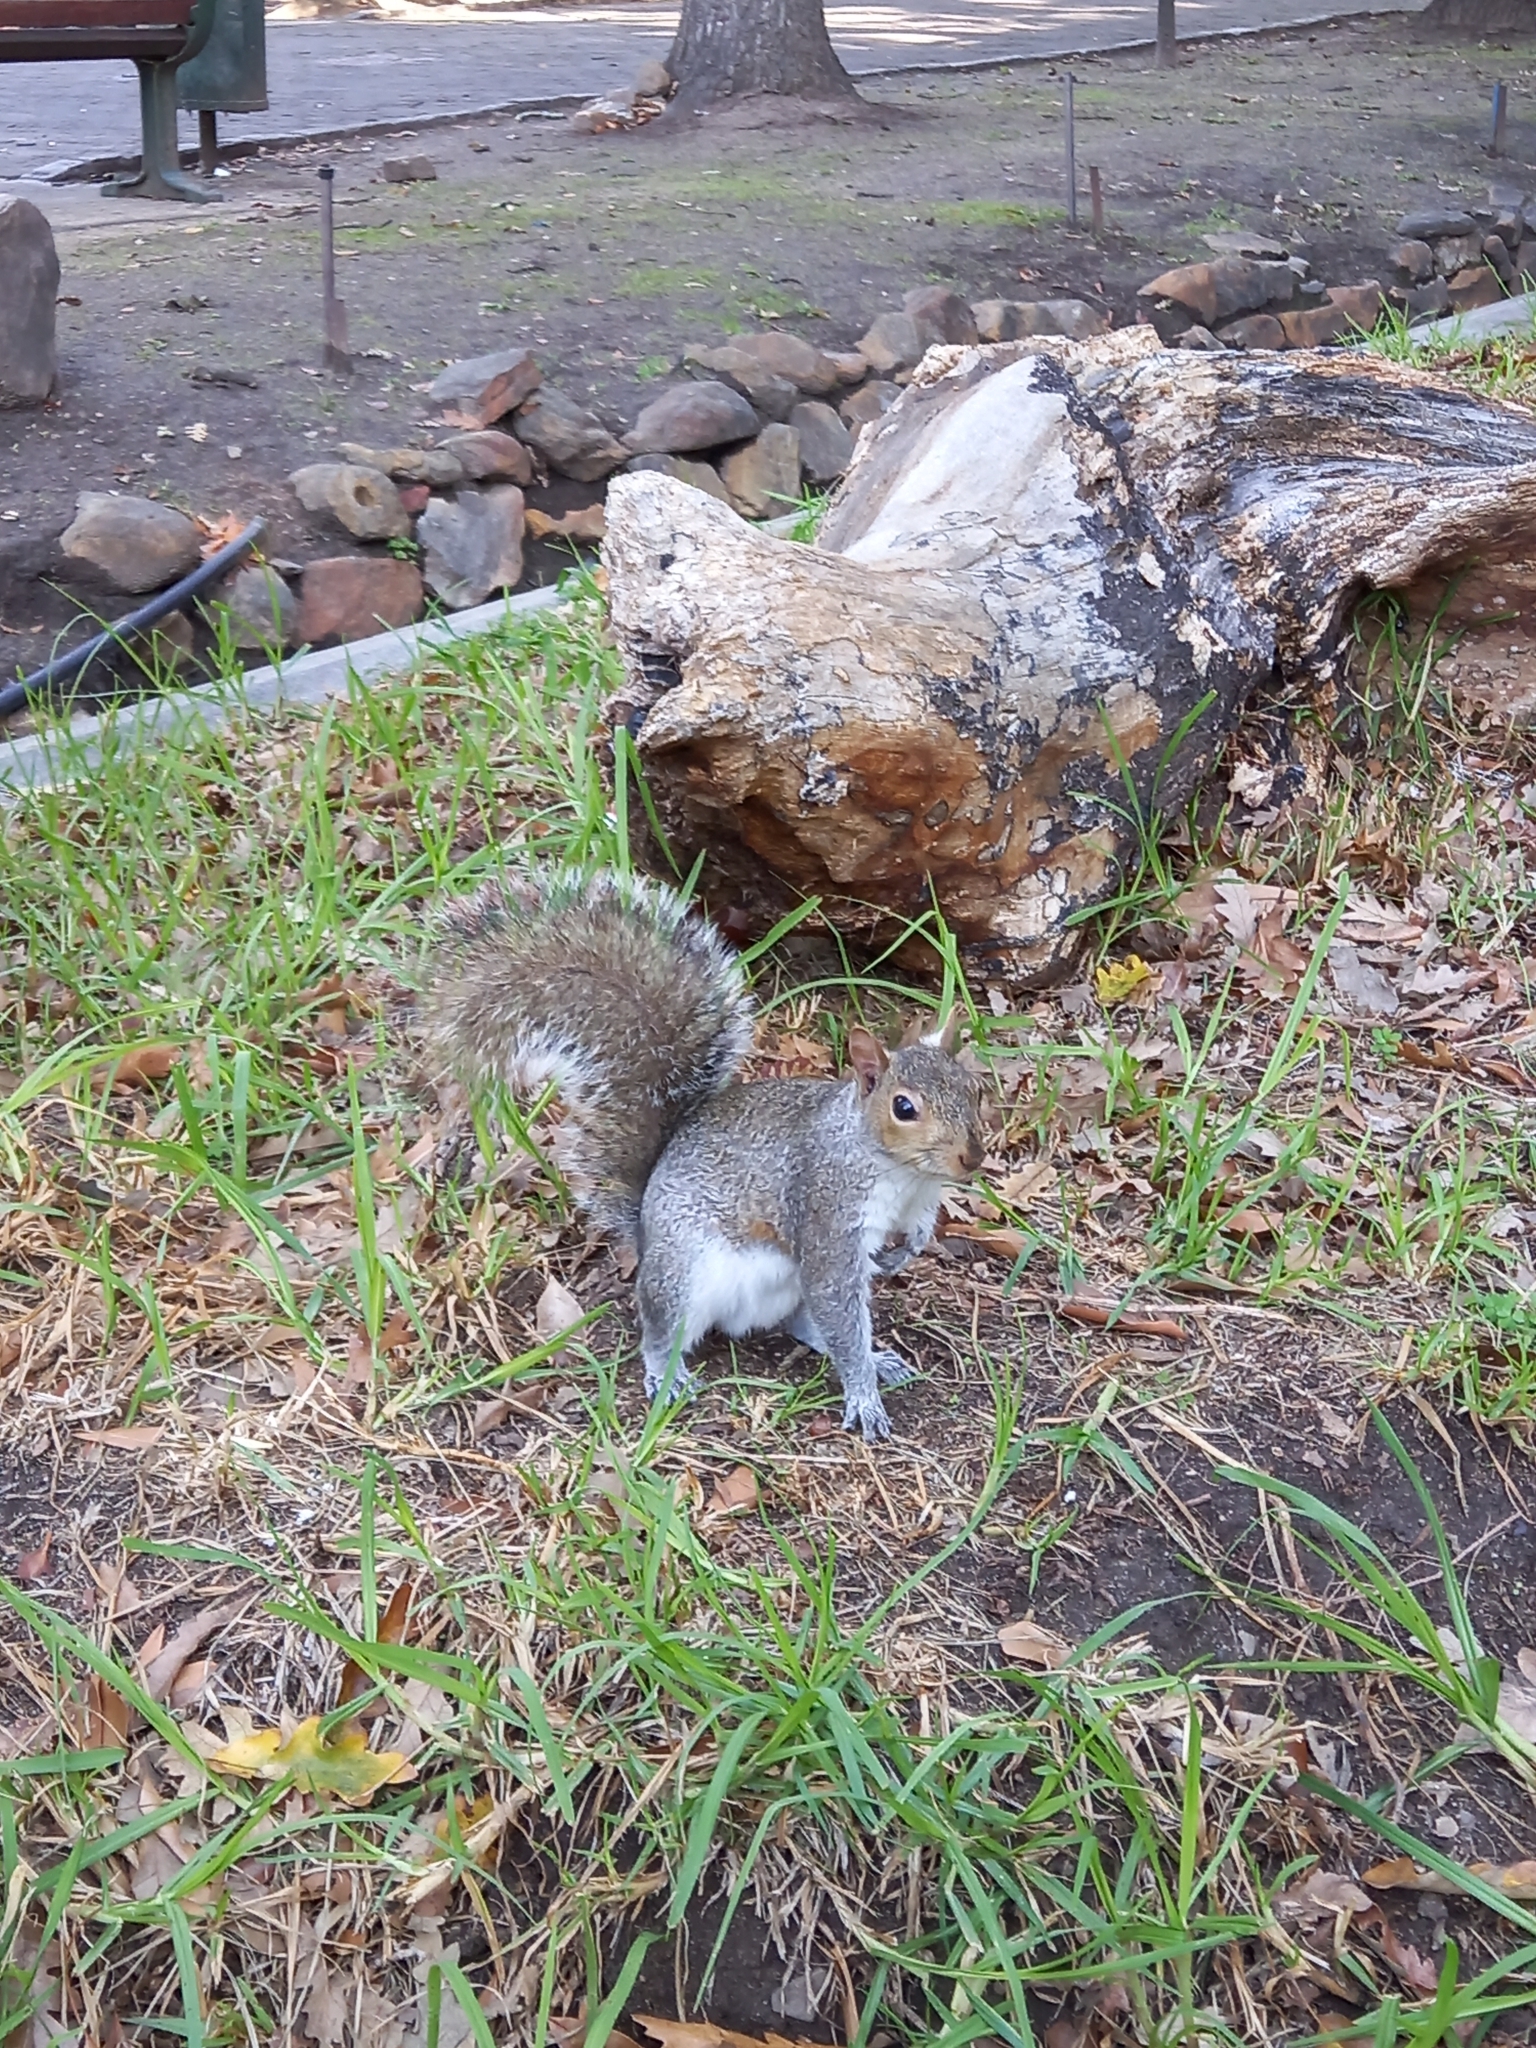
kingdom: Animalia
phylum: Chordata
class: Mammalia
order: Rodentia
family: Sciuridae
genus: Sciurus
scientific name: Sciurus carolinensis
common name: Eastern gray squirrel
